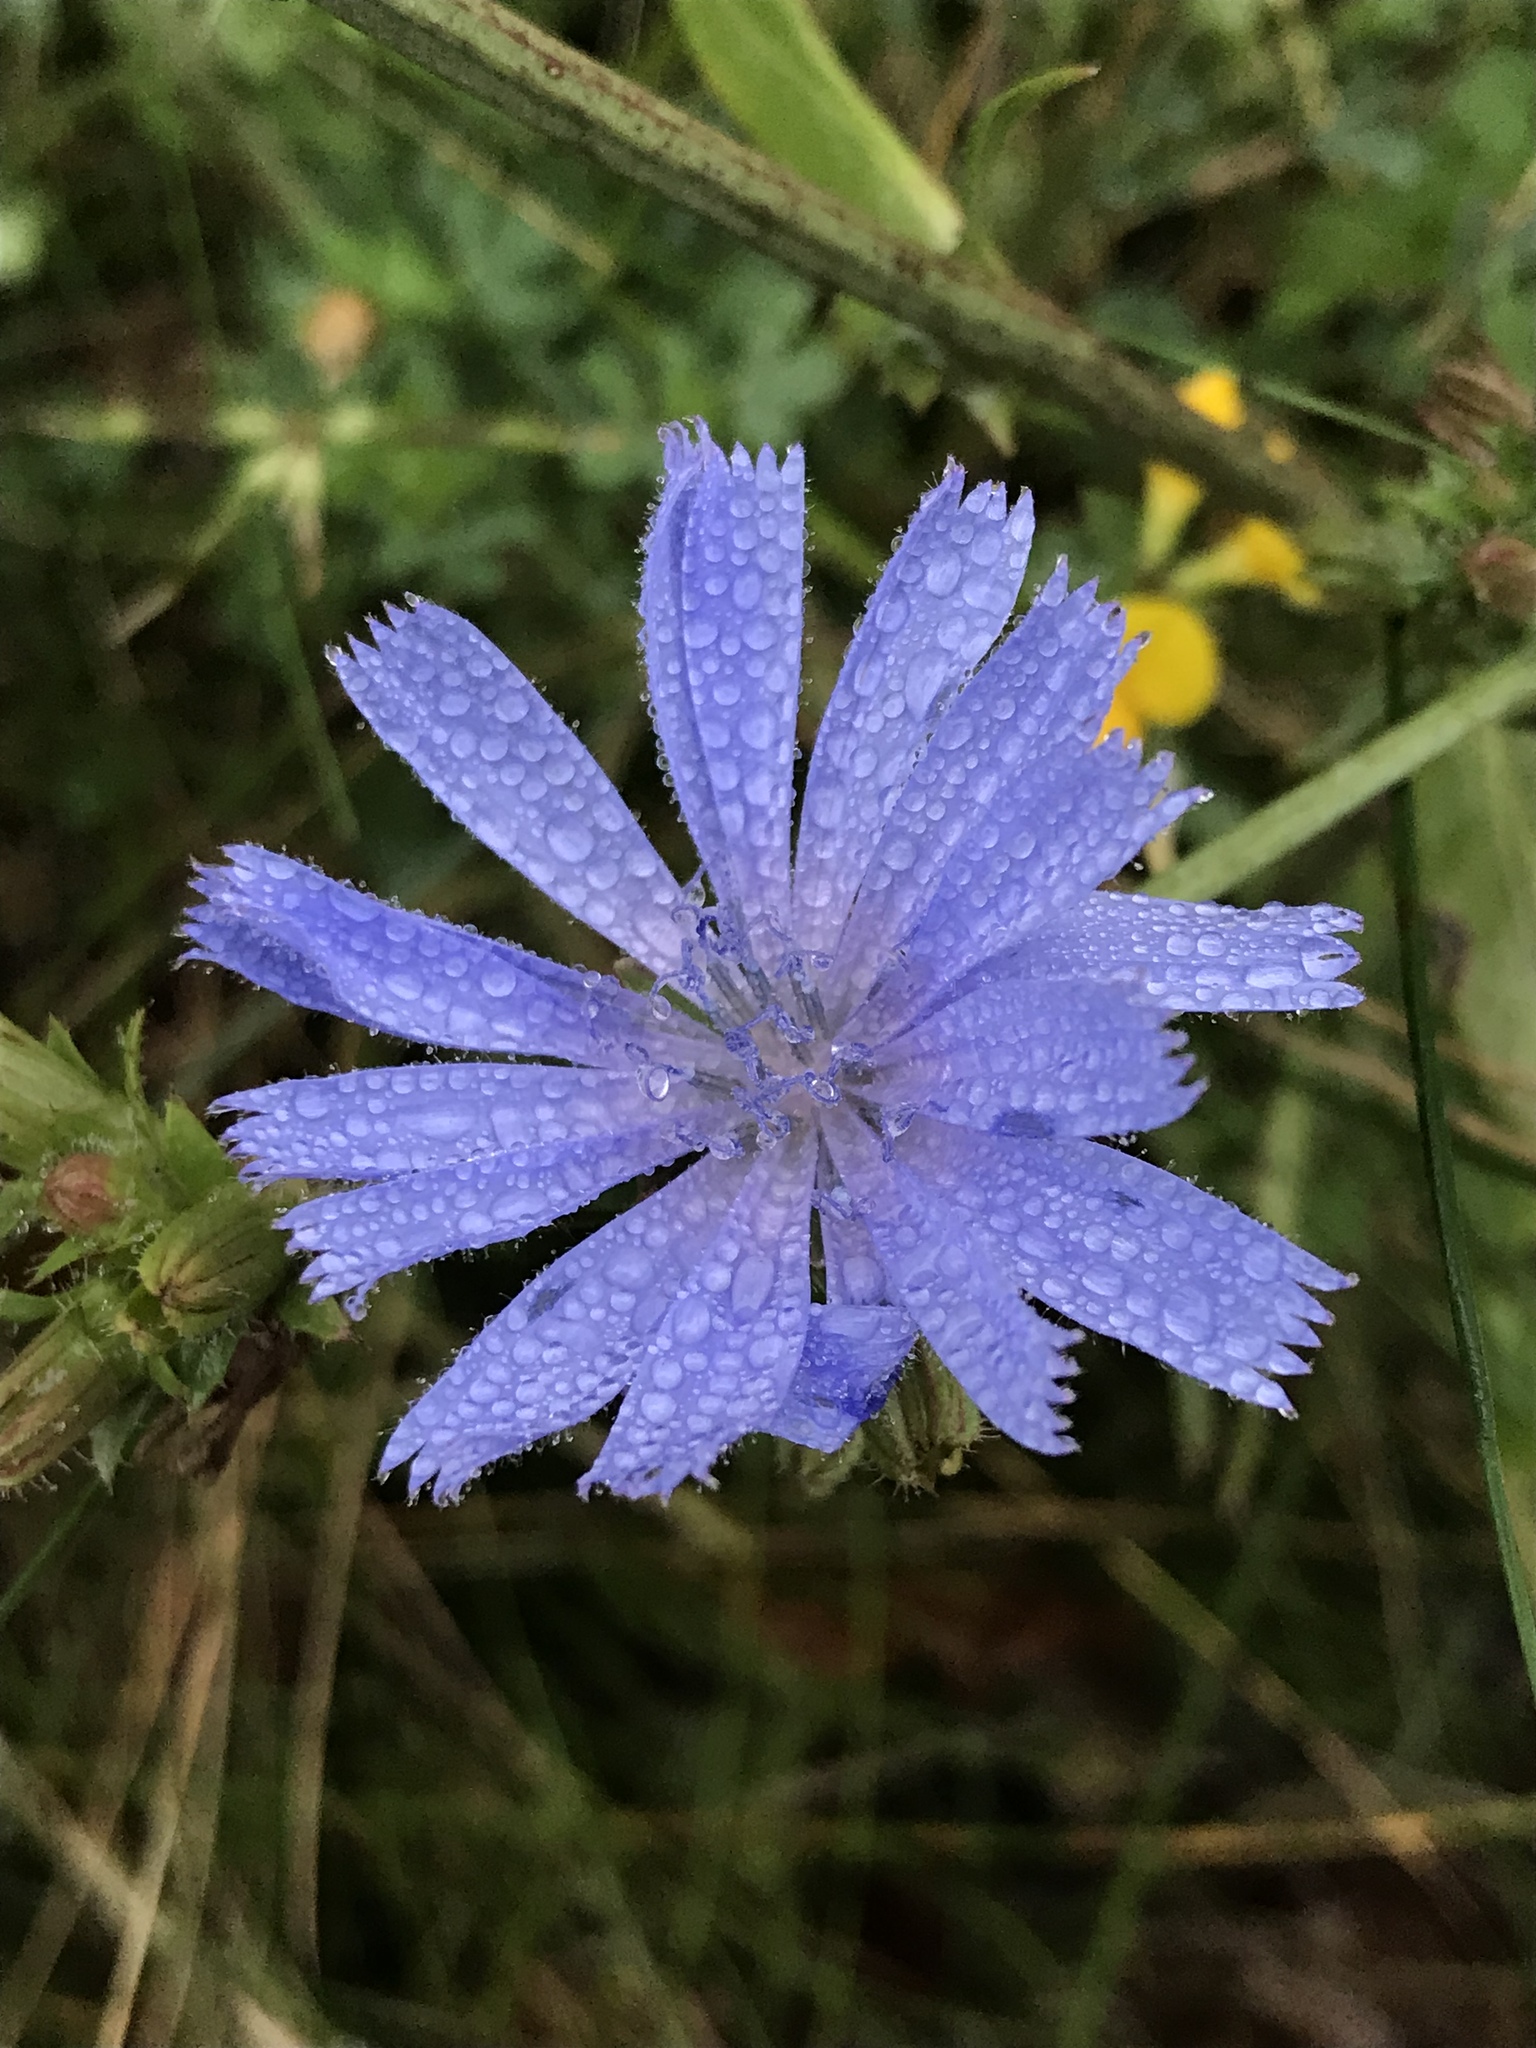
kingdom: Plantae
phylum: Tracheophyta
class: Magnoliopsida
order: Asterales
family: Asteraceae
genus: Cichorium
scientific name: Cichorium intybus
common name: Chicory
